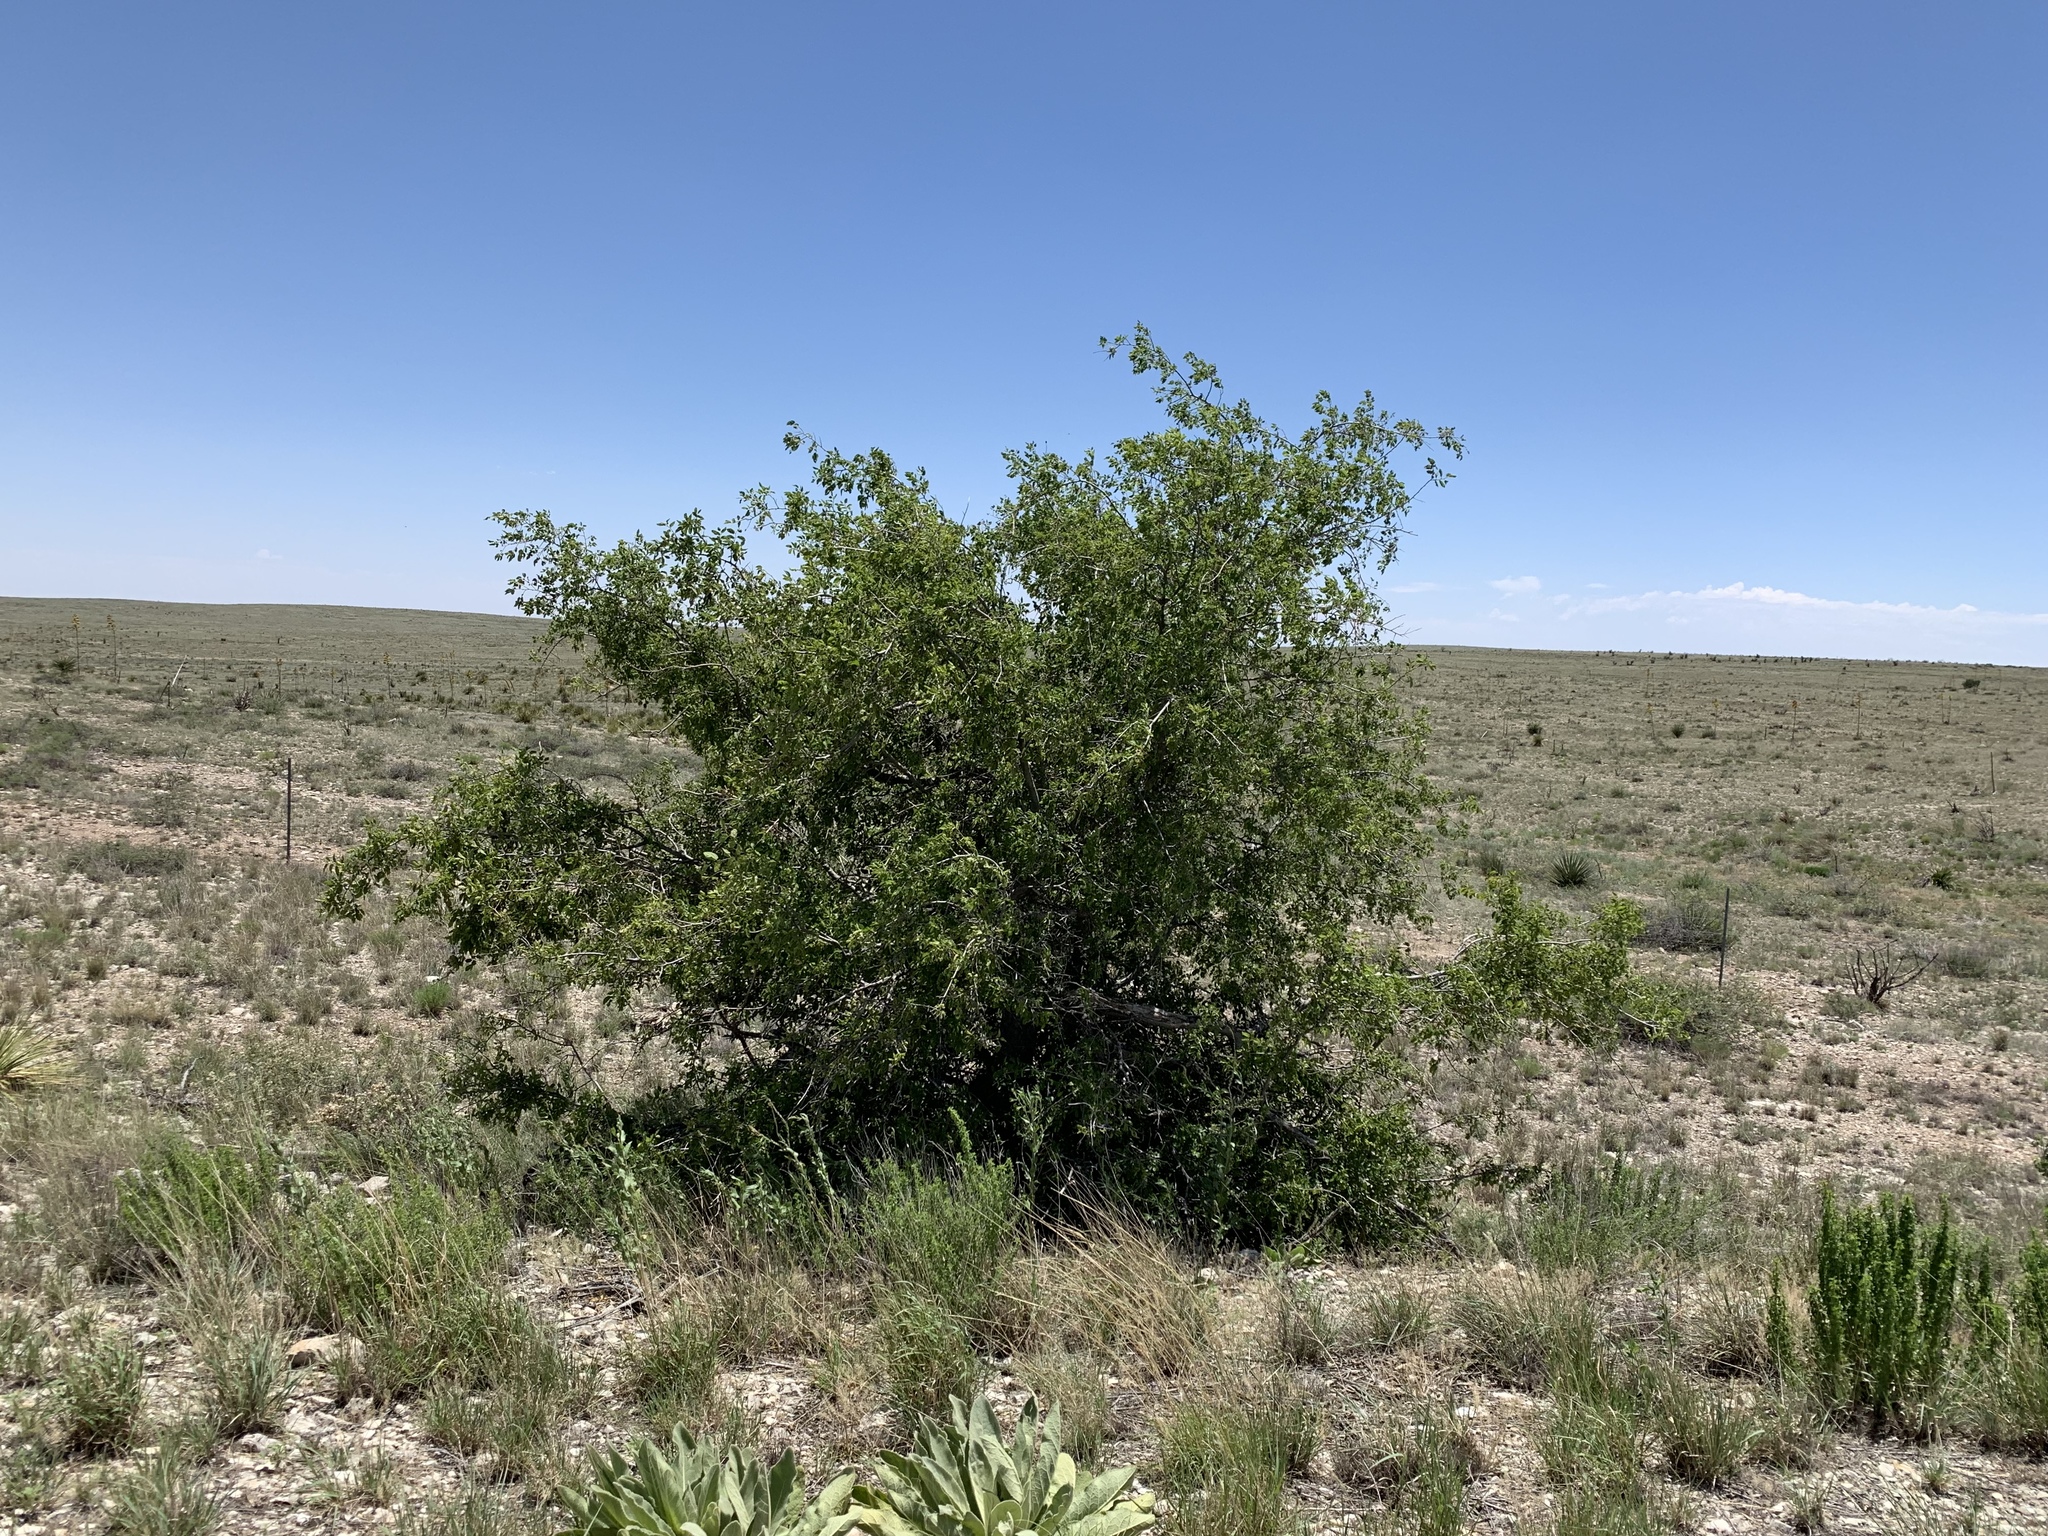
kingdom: Plantae
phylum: Tracheophyta
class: Magnoliopsida
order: Rosales
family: Cannabaceae
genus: Celtis
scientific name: Celtis reticulata
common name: Netleaf hackberry
